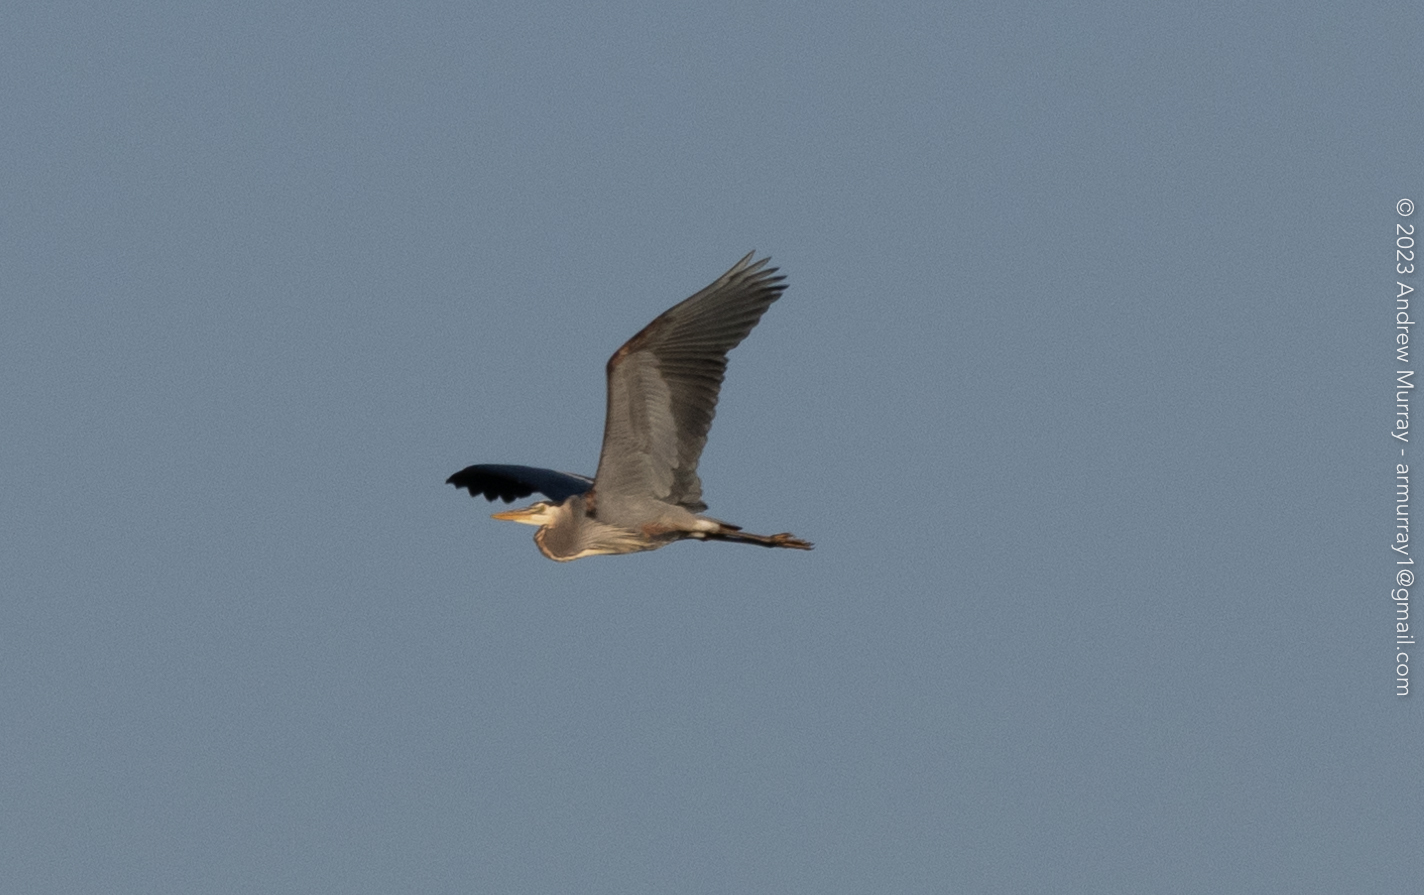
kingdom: Animalia
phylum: Chordata
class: Aves
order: Pelecaniformes
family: Ardeidae
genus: Ardea
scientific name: Ardea herodias
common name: Great blue heron
